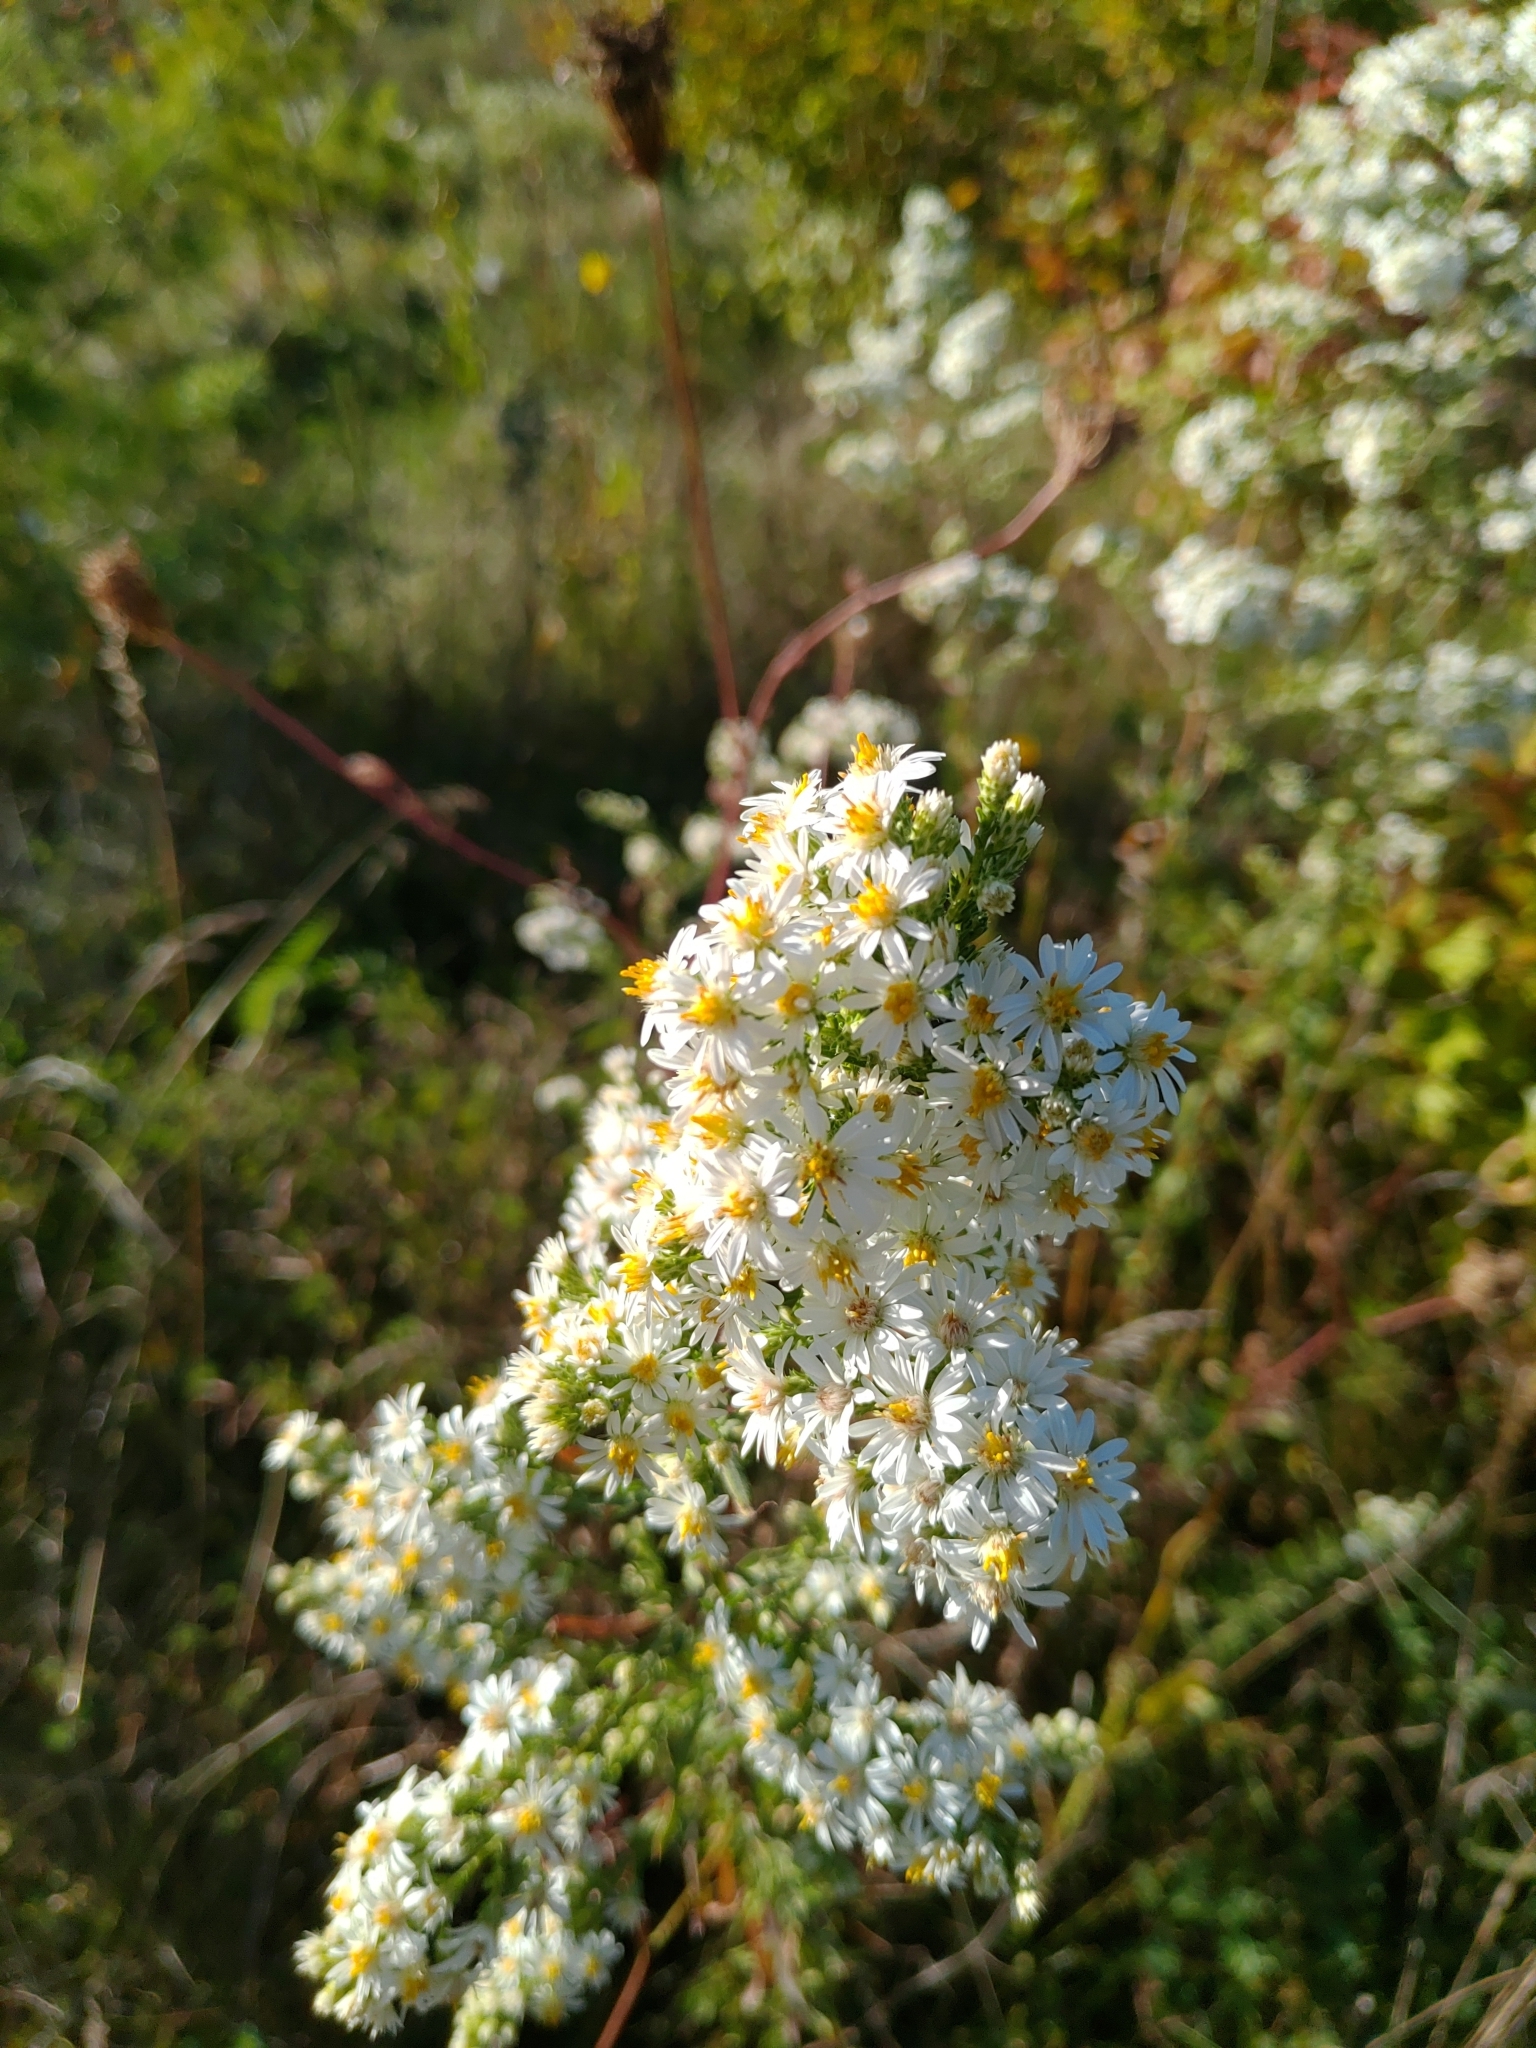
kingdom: Plantae
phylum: Tracheophyta
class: Magnoliopsida
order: Asterales
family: Asteraceae
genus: Symphyotrichum
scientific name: Symphyotrichum ericoides
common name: Heath aster
